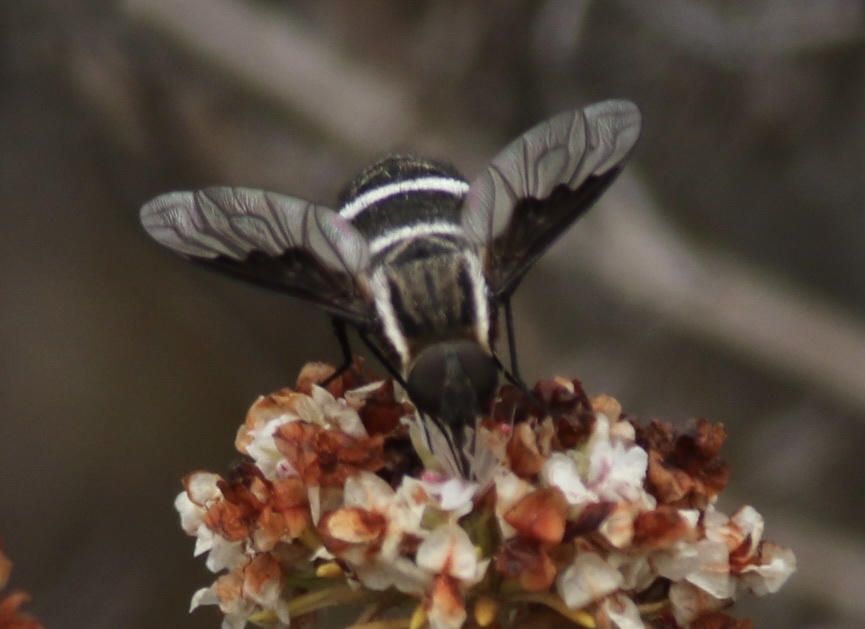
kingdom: Animalia
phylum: Arthropoda
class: Insecta
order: Diptera
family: Bombyliidae
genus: Hemipenthes
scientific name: Hemipenthes lepidotus
